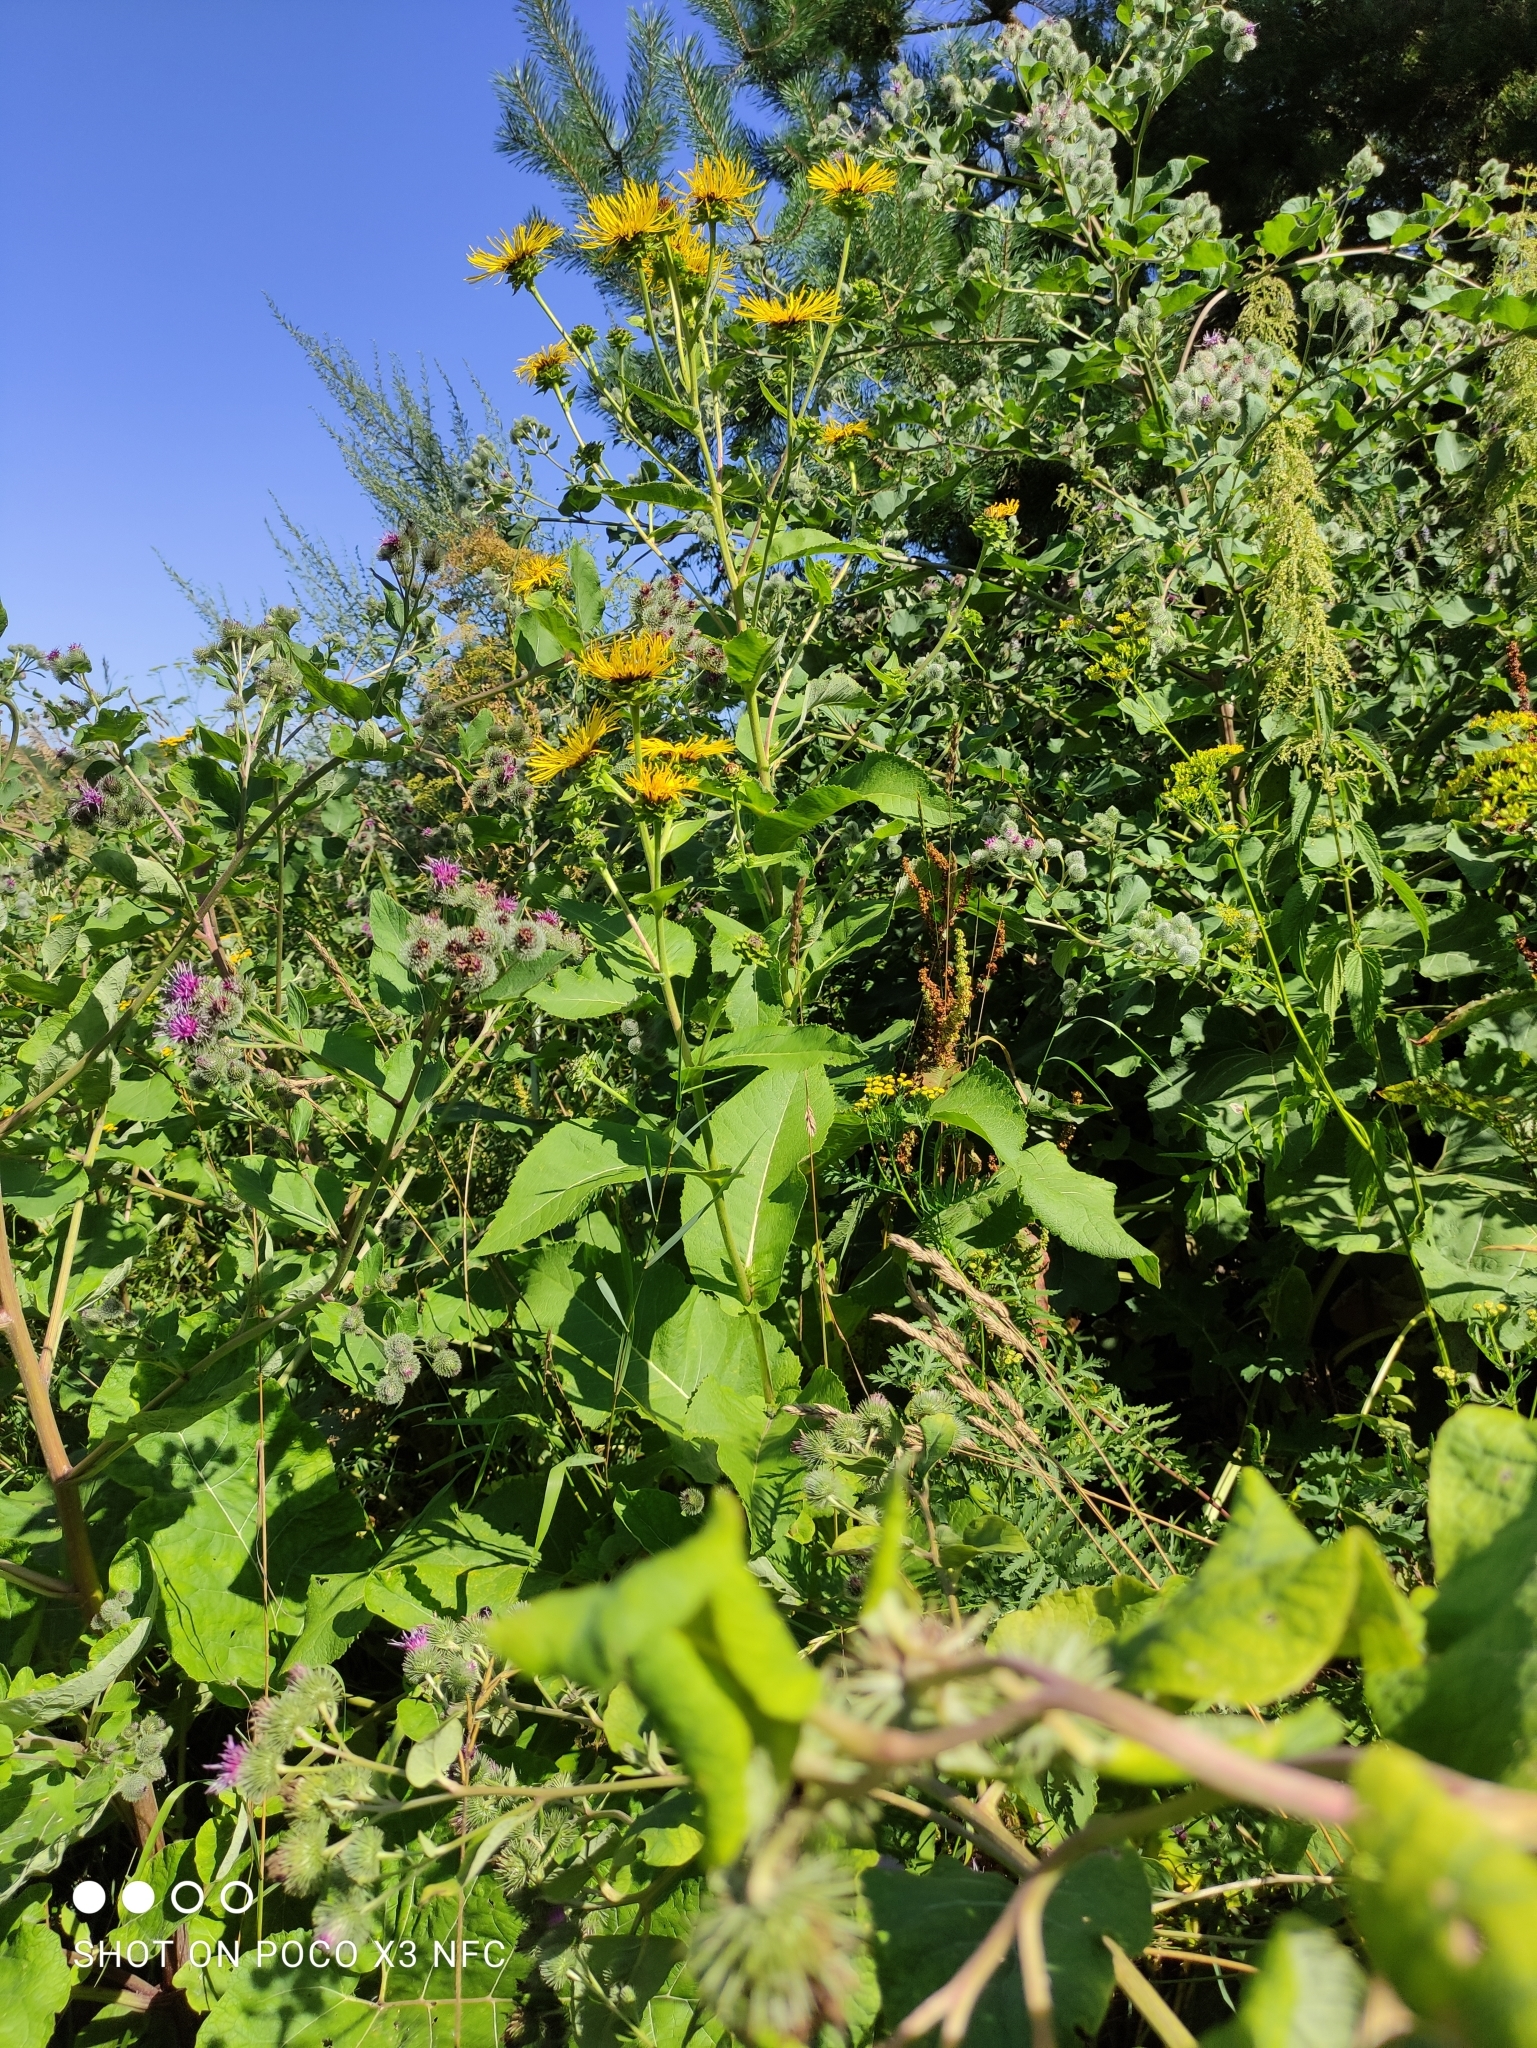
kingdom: Plantae
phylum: Tracheophyta
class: Magnoliopsida
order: Asterales
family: Asteraceae
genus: Inula
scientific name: Inula helenium
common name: Elecampane
